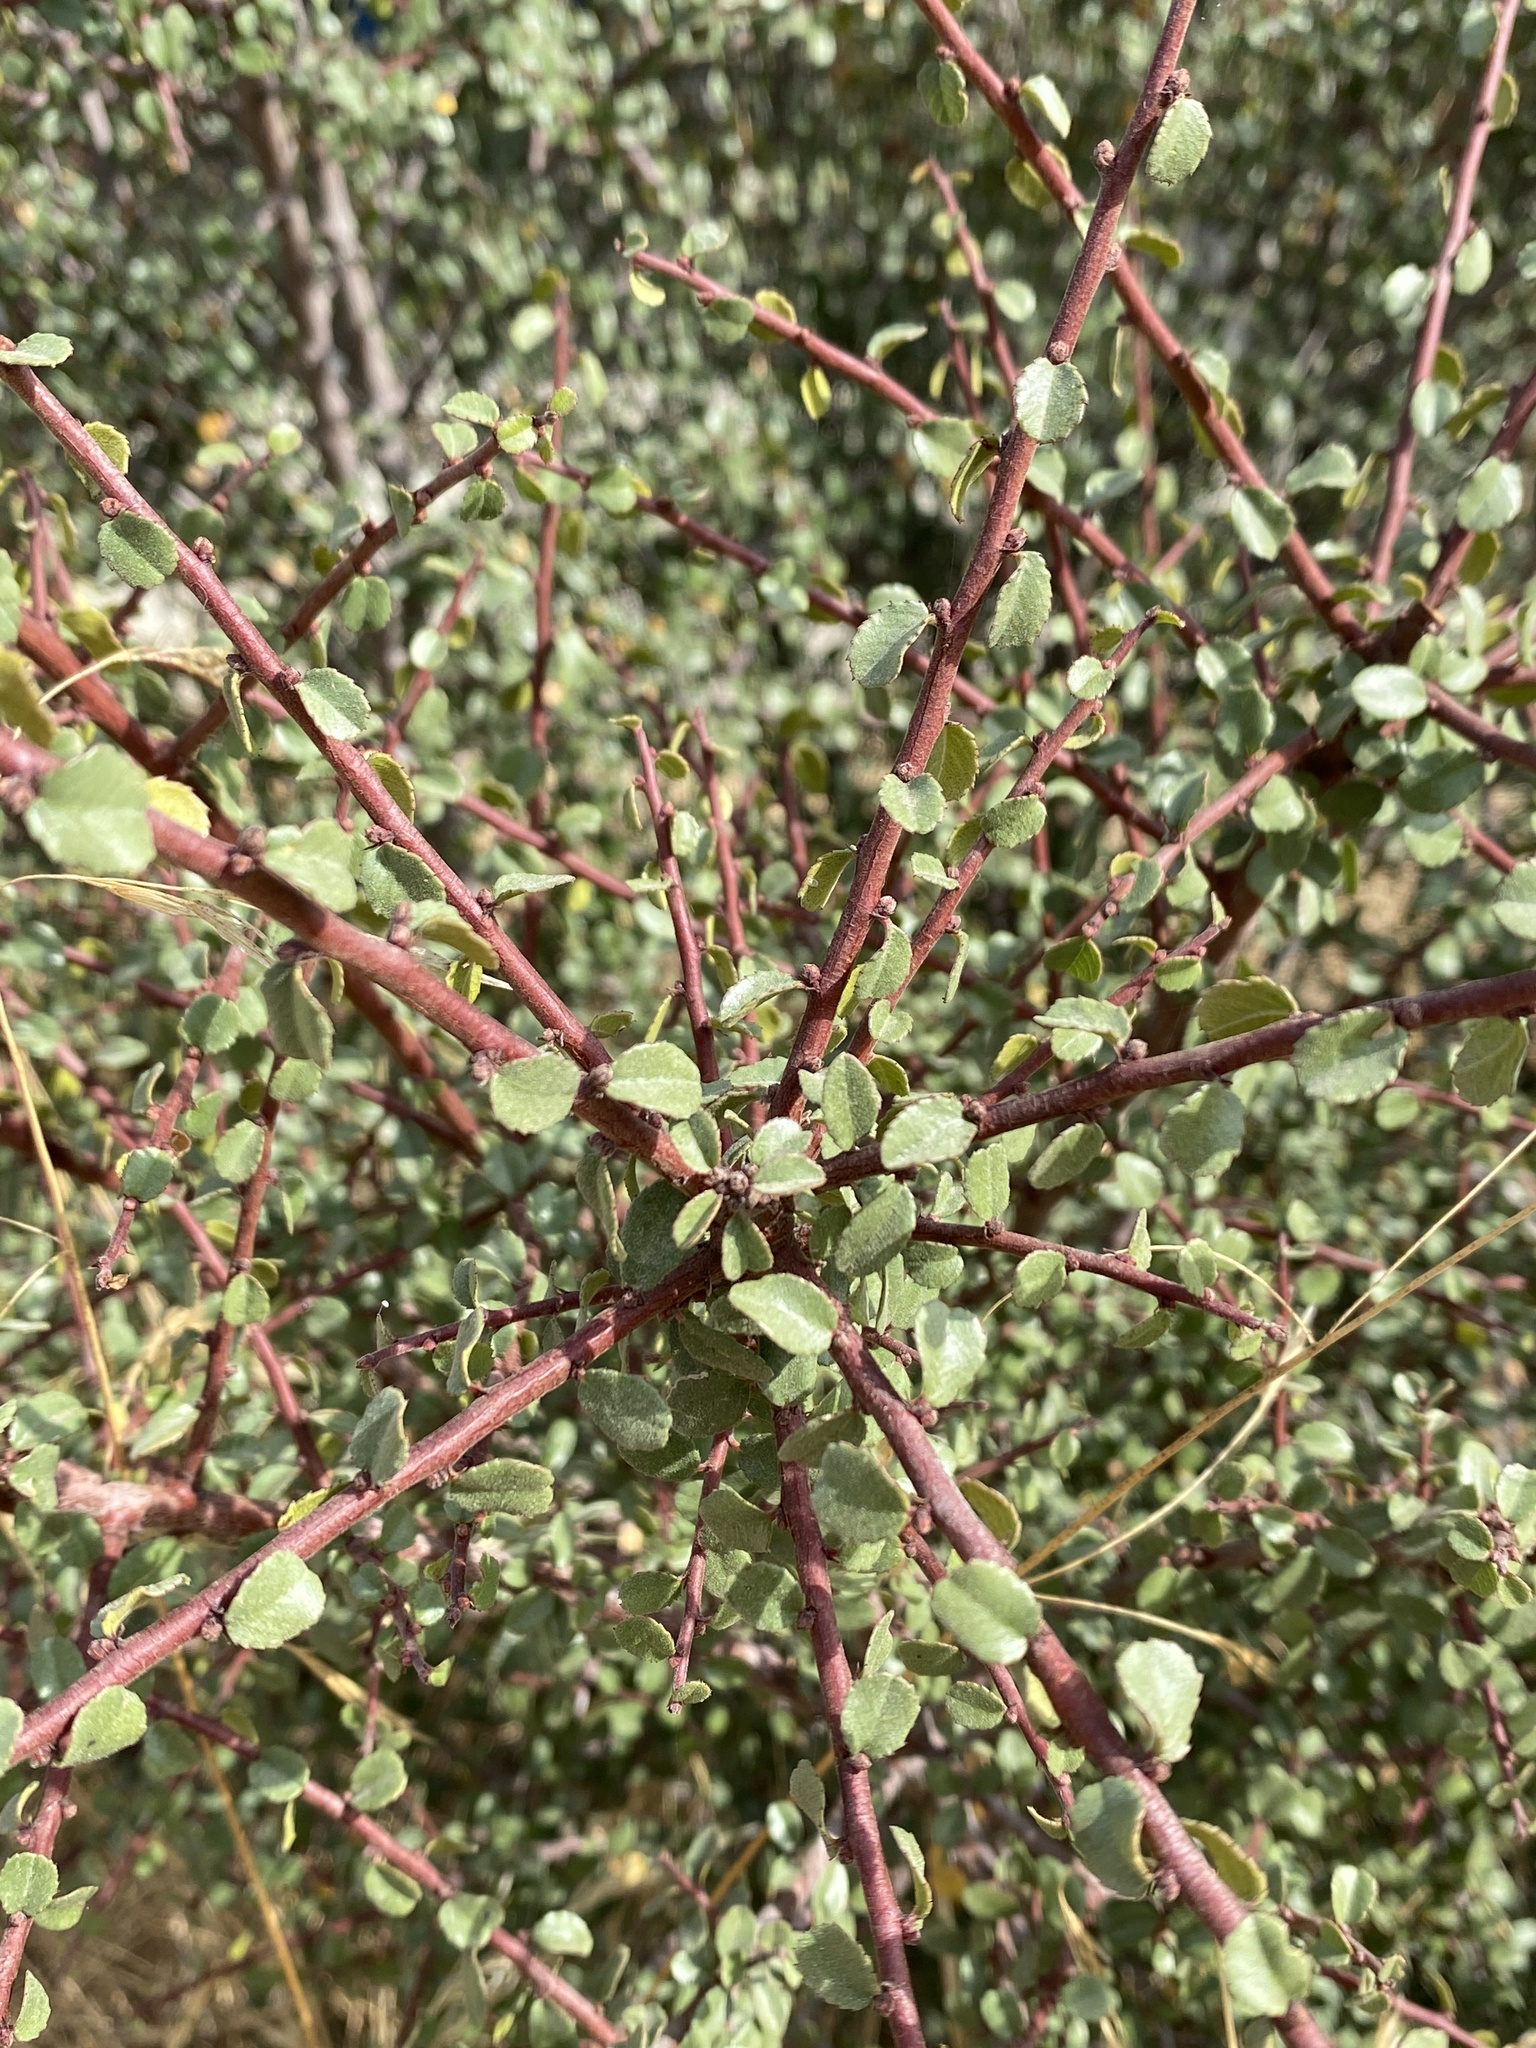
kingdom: Plantae
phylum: Tracheophyta
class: Magnoliopsida
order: Rosales
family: Rhamnaceae
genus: Endotropis
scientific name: Endotropis crocea
